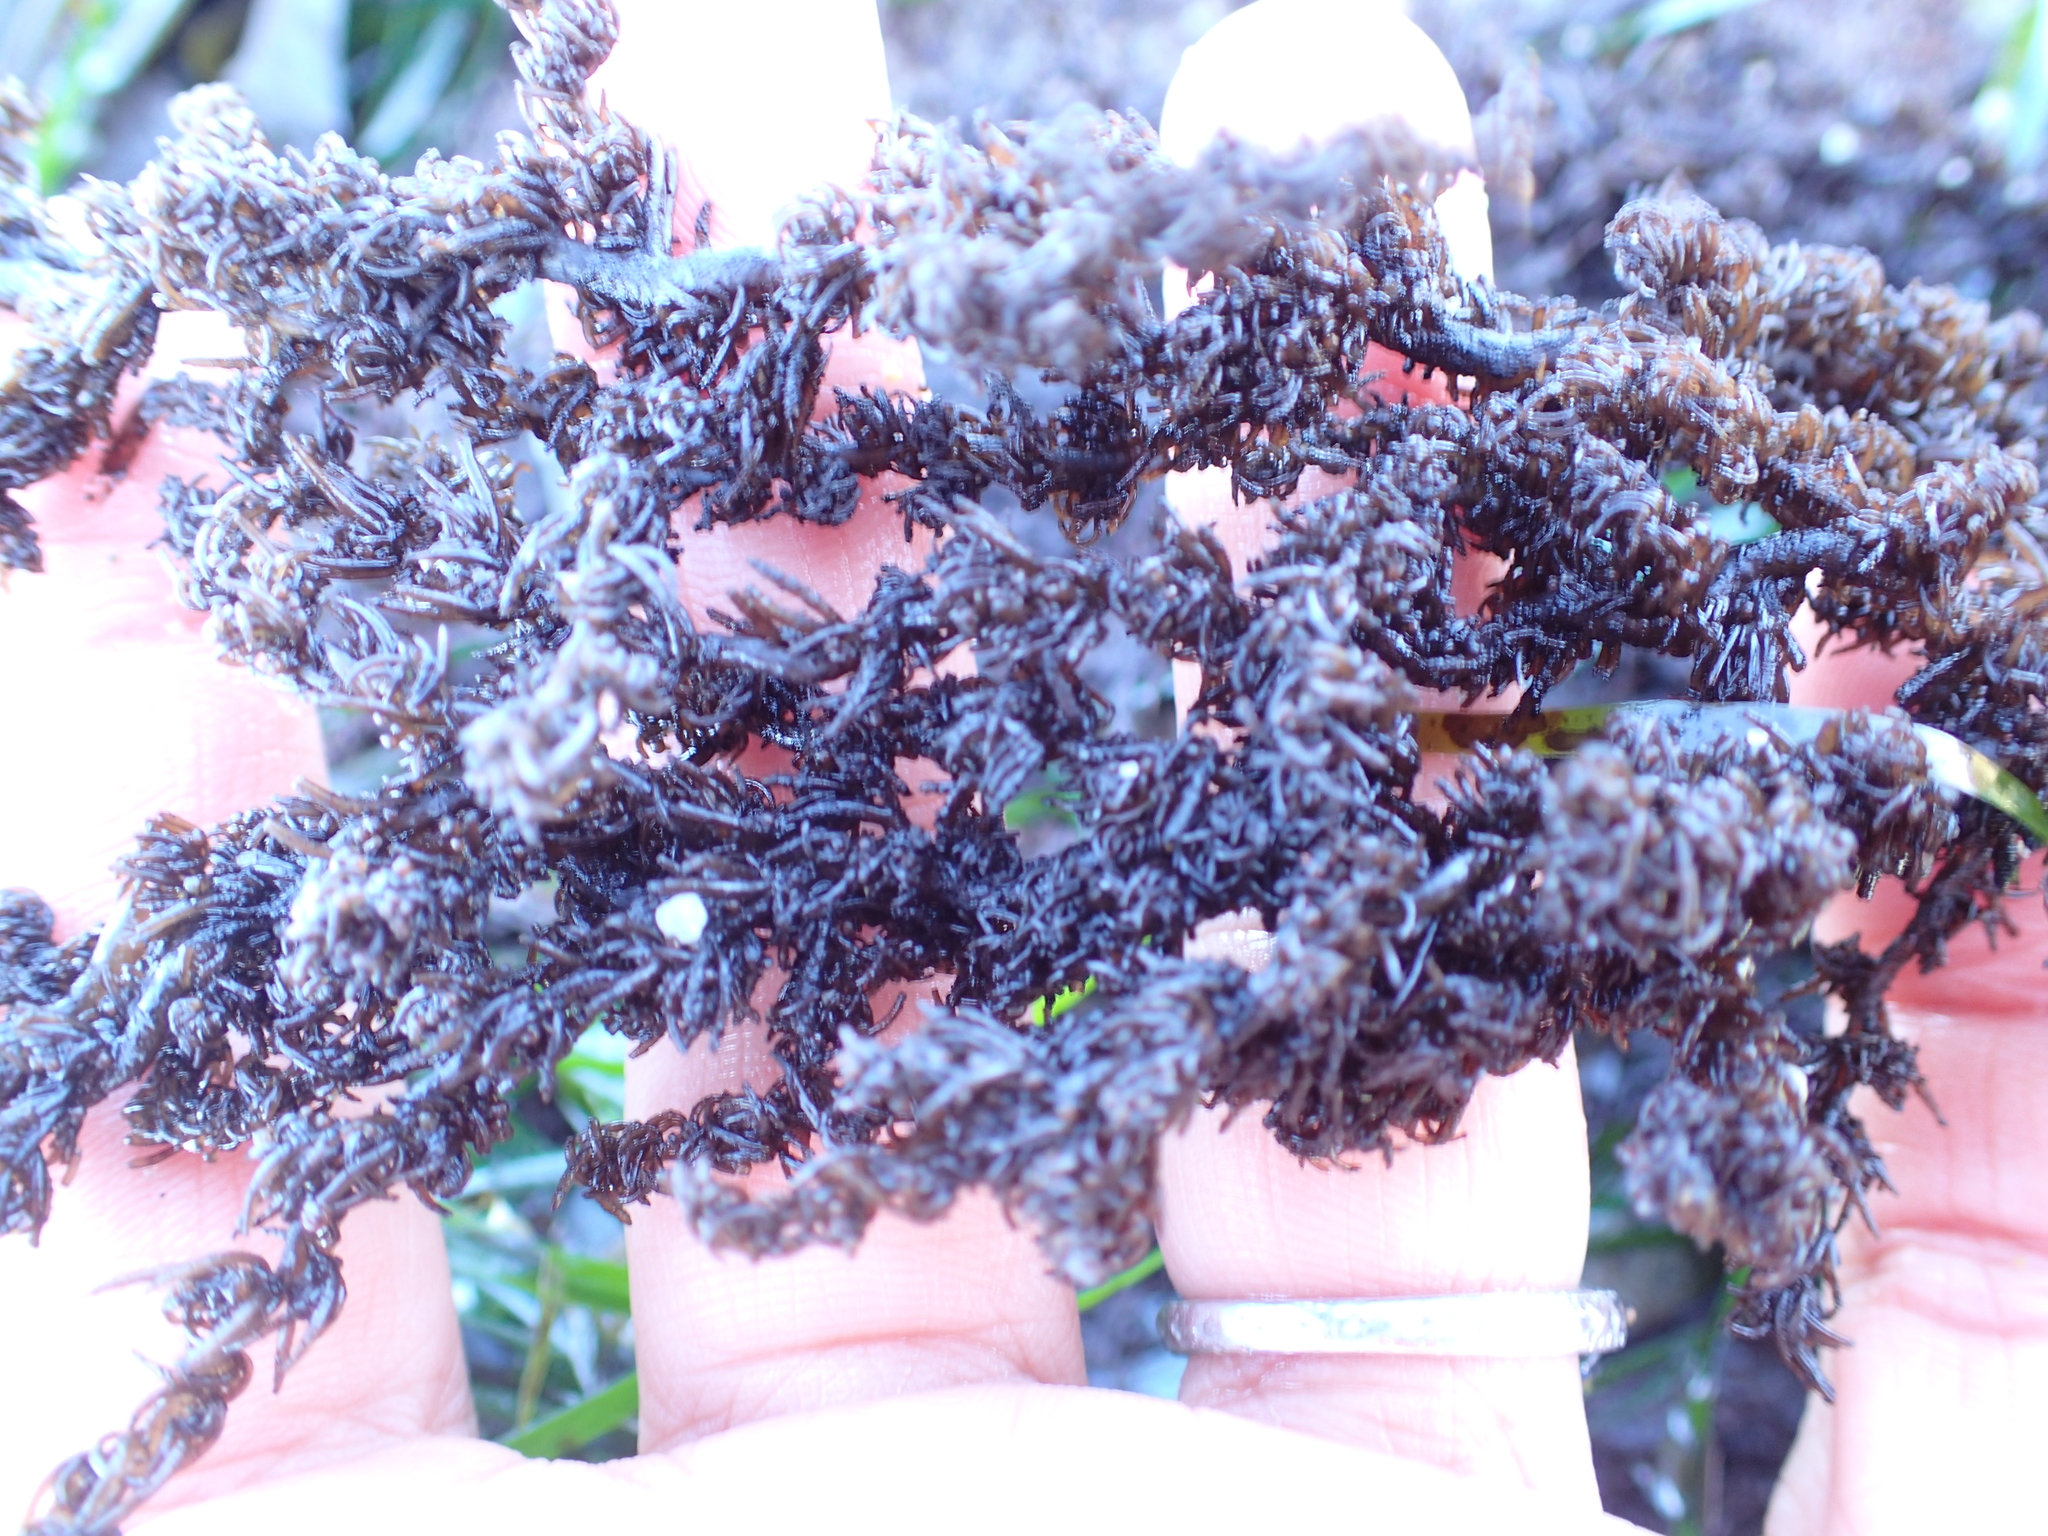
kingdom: Plantae
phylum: Rhodophyta
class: Florideophyceae
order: Ceramiales
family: Rhodomelaceae
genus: Neorhodomela
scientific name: Neorhodomela larix
